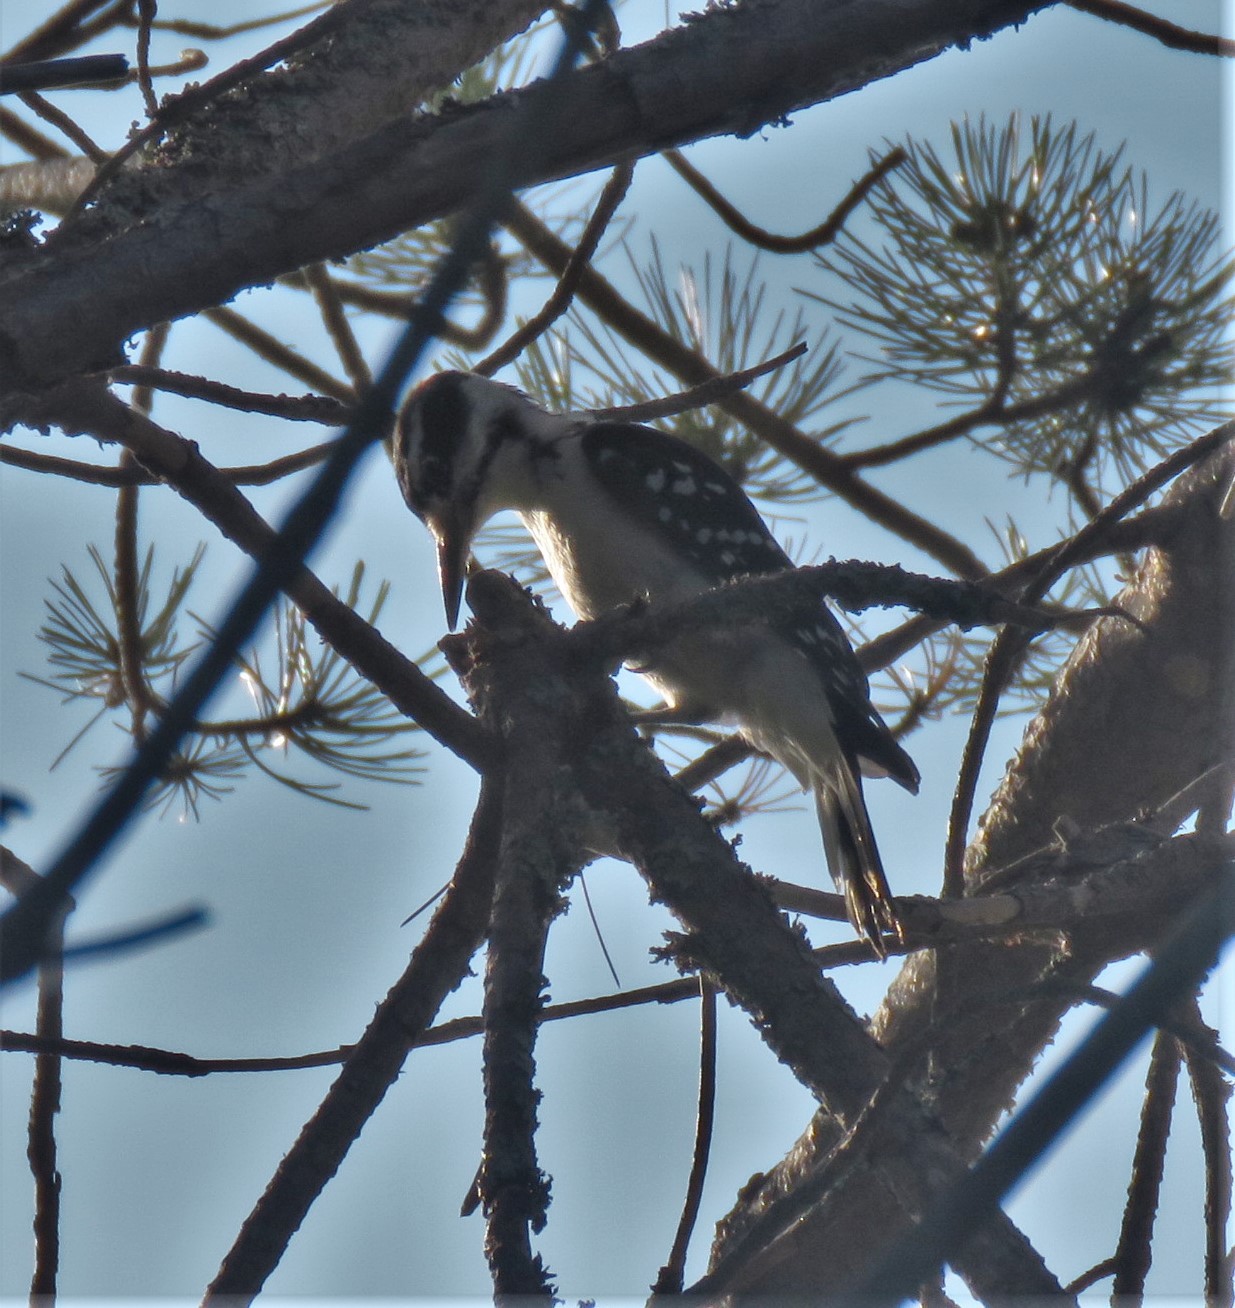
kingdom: Animalia
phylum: Chordata
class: Aves
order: Piciformes
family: Picidae
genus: Leuconotopicus
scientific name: Leuconotopicus villosus
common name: Hairy woodpecker
